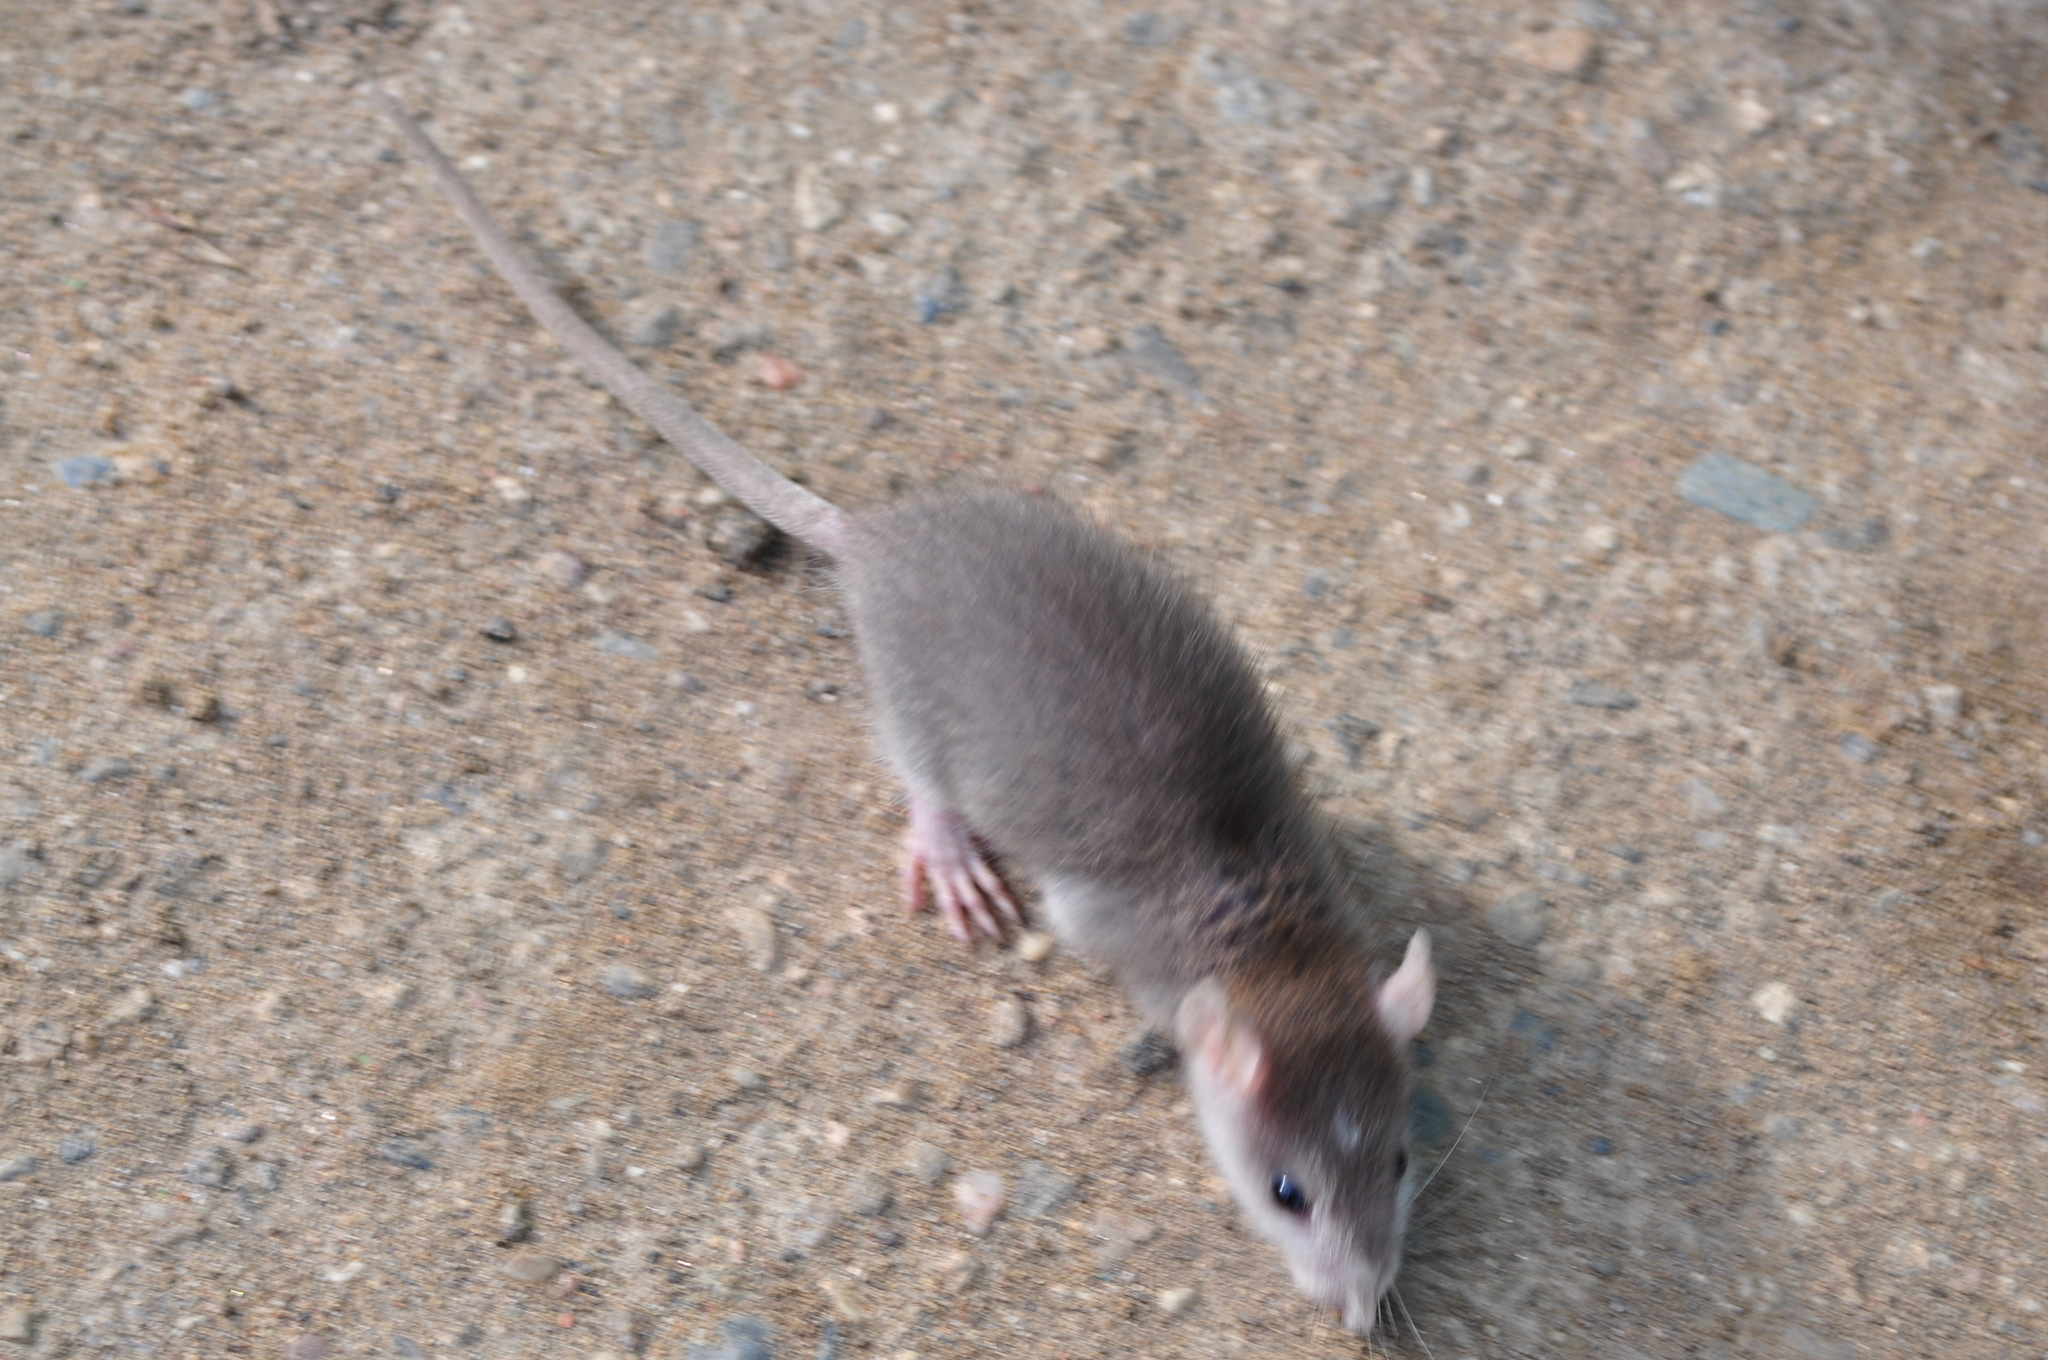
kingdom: Animalia
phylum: Chordata
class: Mammalia
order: Rodentia
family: Muridae
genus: Rattus
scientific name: Rattus rattus
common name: Black rat
